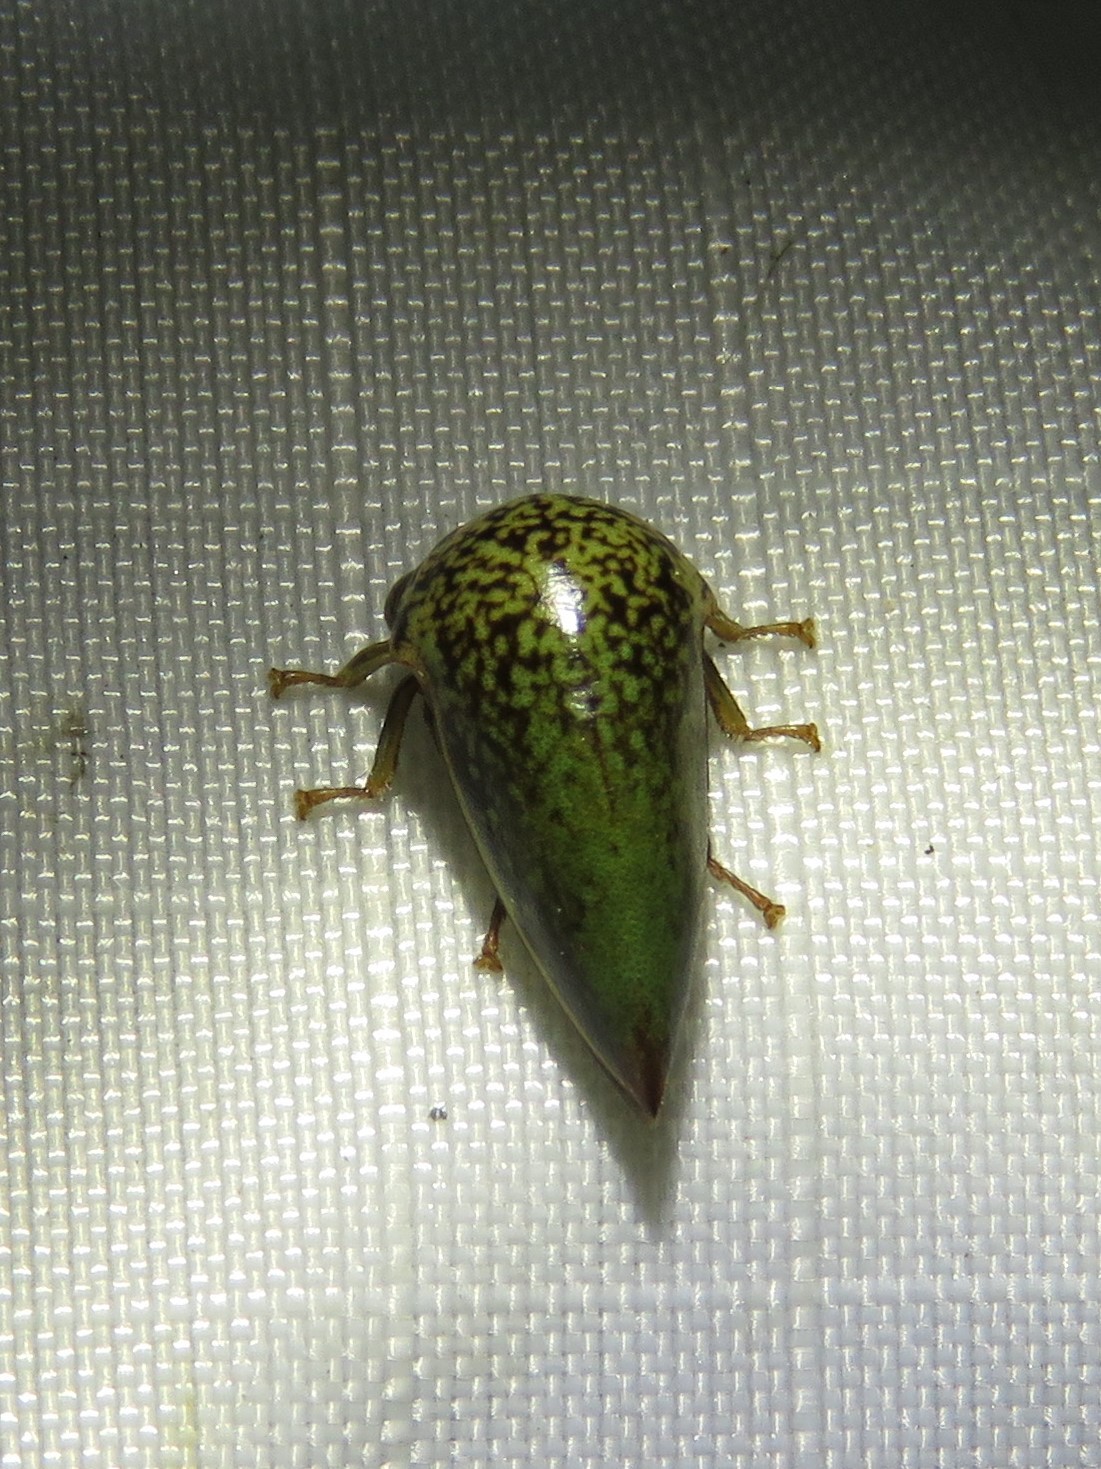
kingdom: Animalia
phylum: Arthropoda
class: Insecta
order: Hemiptera
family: Membracidae
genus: Stictopelta
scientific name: Stictopelta marmorata
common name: Treehopper
